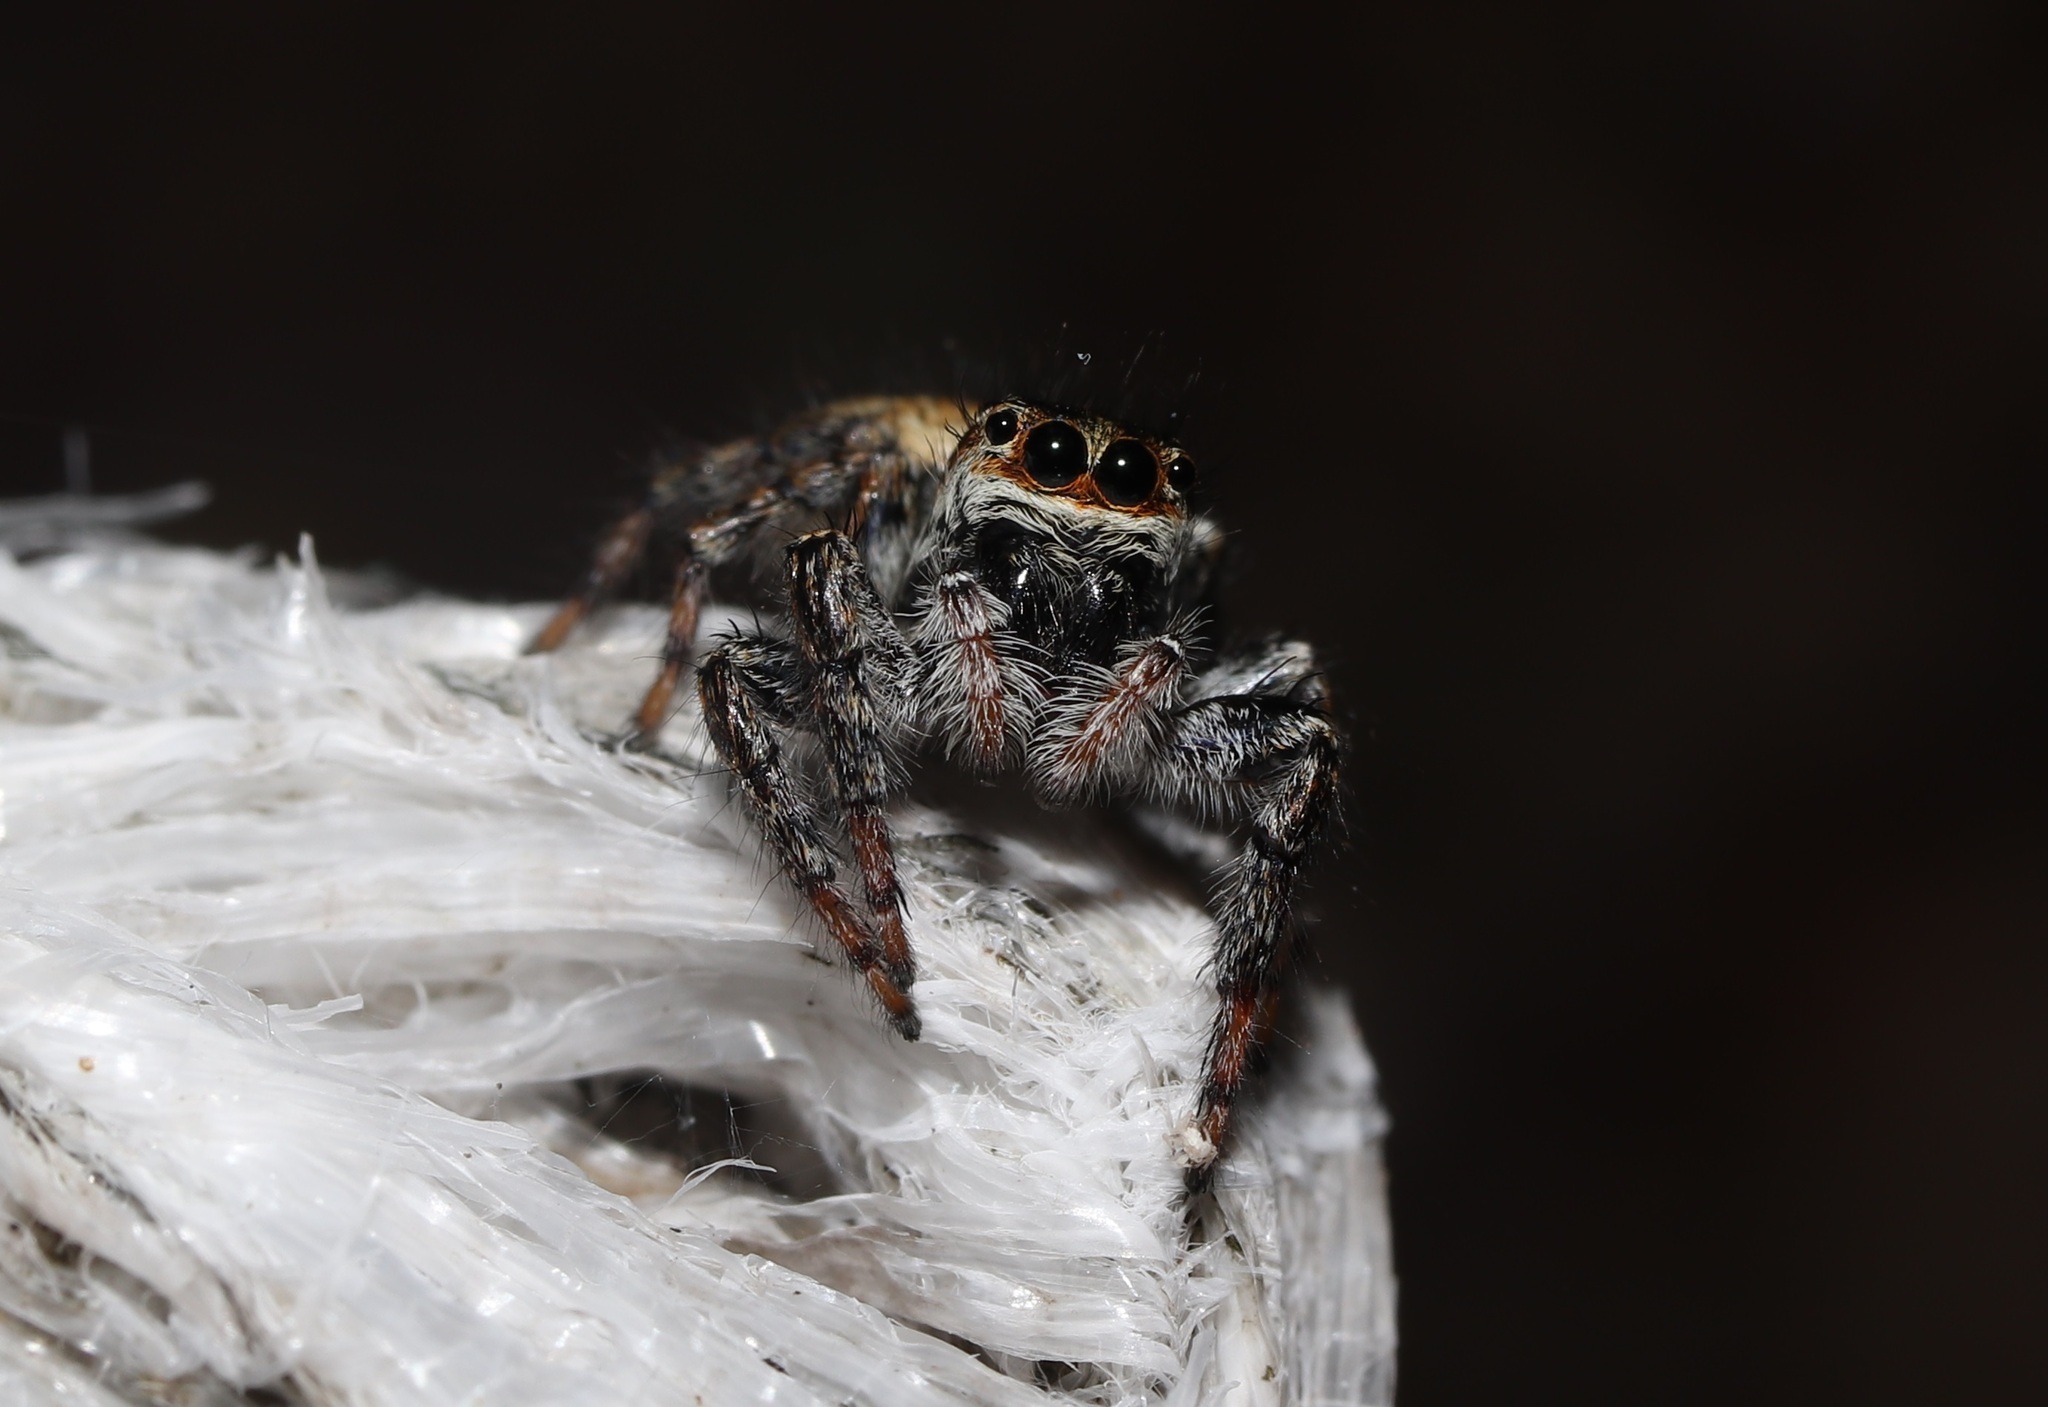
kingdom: Animalia
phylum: Arthropoda
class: Arachnida
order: Araneae
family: Salticidae
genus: Carrhotus
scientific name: Carrhotus xanthogramma
